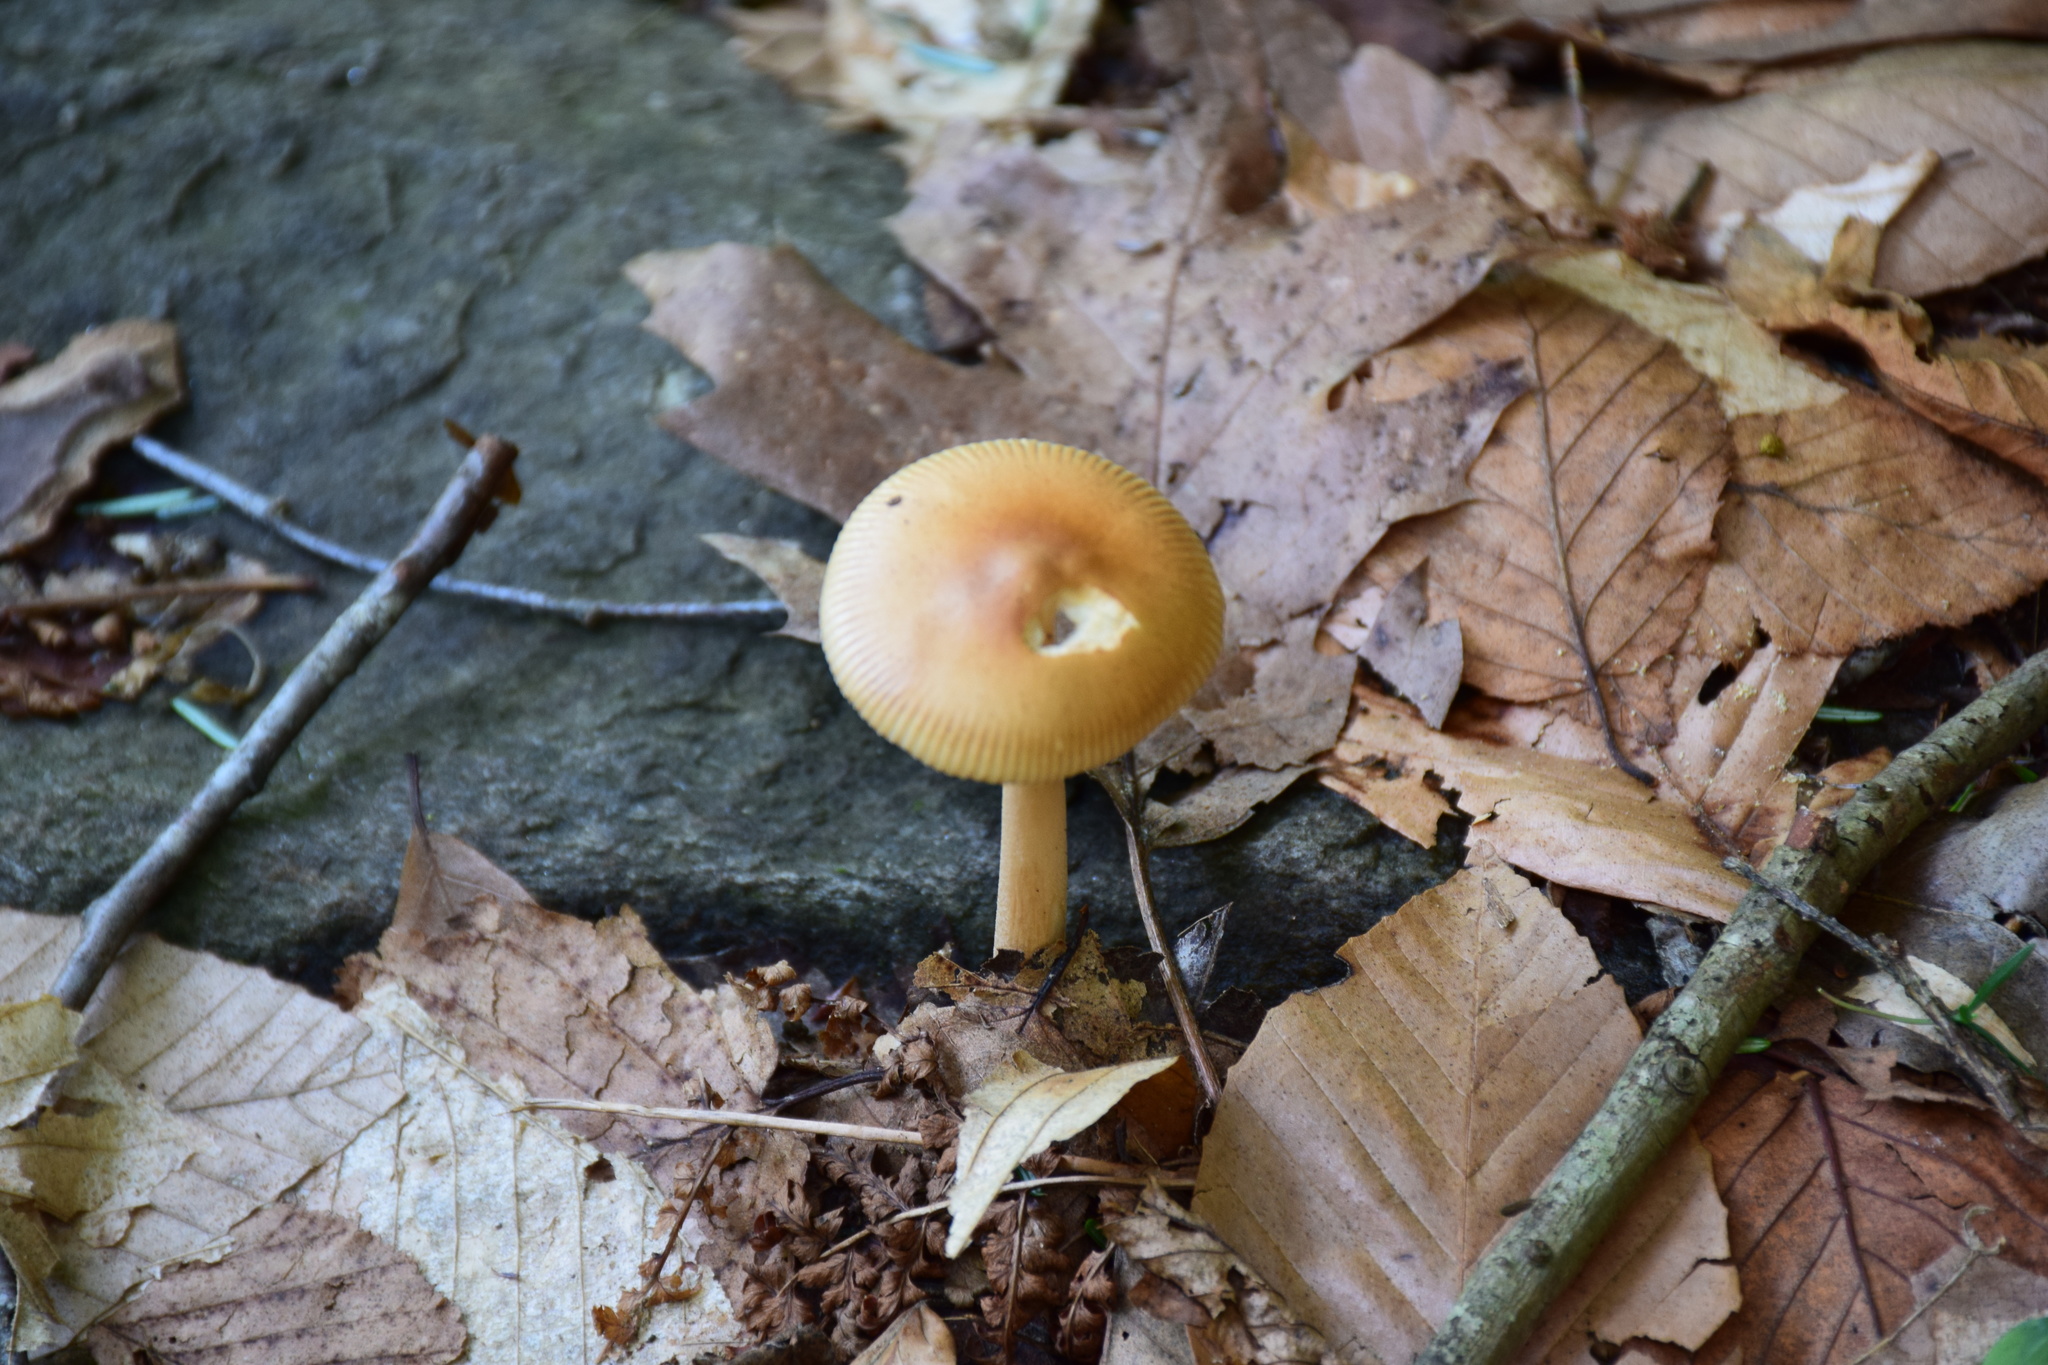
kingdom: Fungi
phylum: Basidiomycota
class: Agaricomycetes
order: Agaricales
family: Amanitaceae
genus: Amanita
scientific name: Amanita fulva
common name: Tawny grisette
